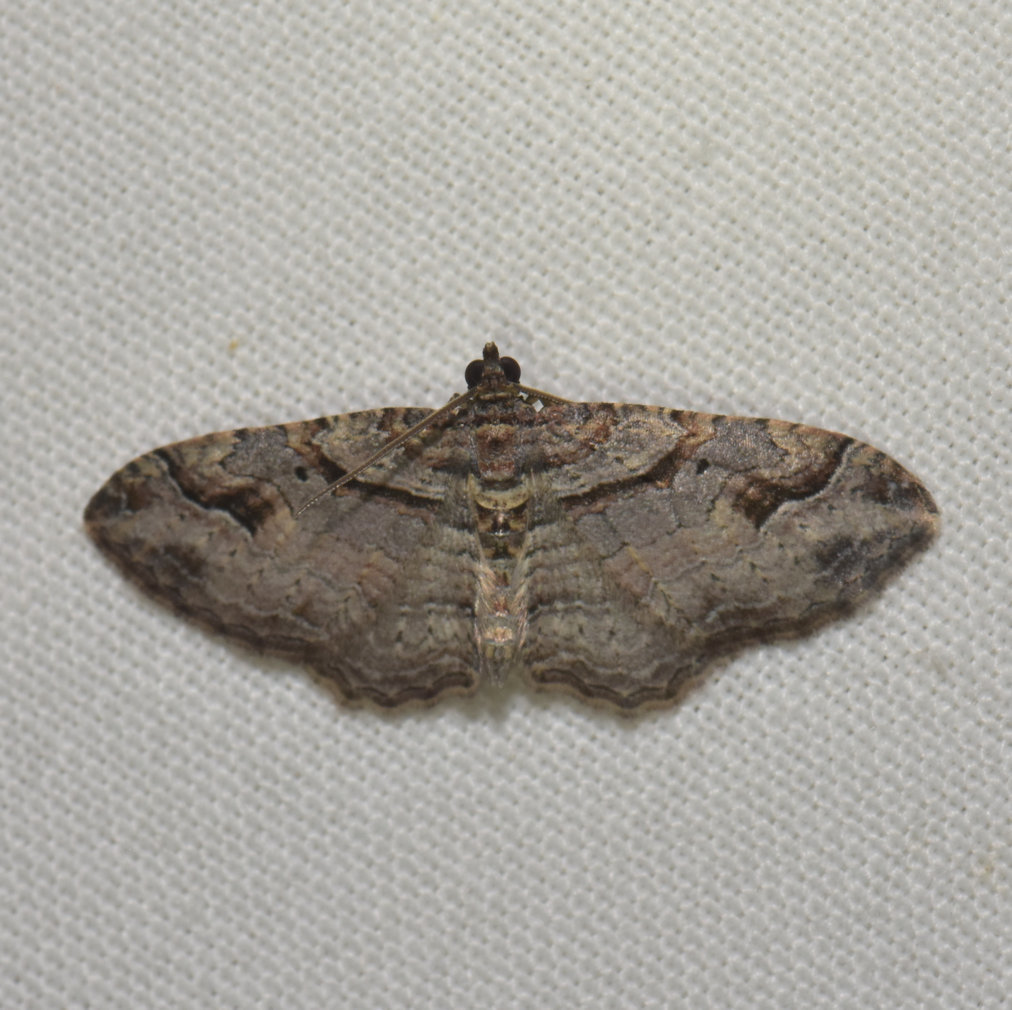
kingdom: Animalia
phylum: Arthropoda
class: Insecta
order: Lepidoptera
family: Geometridae
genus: Costaconvexa
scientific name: Costaconvexa centrostrigaria
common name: Bent-line carpet
